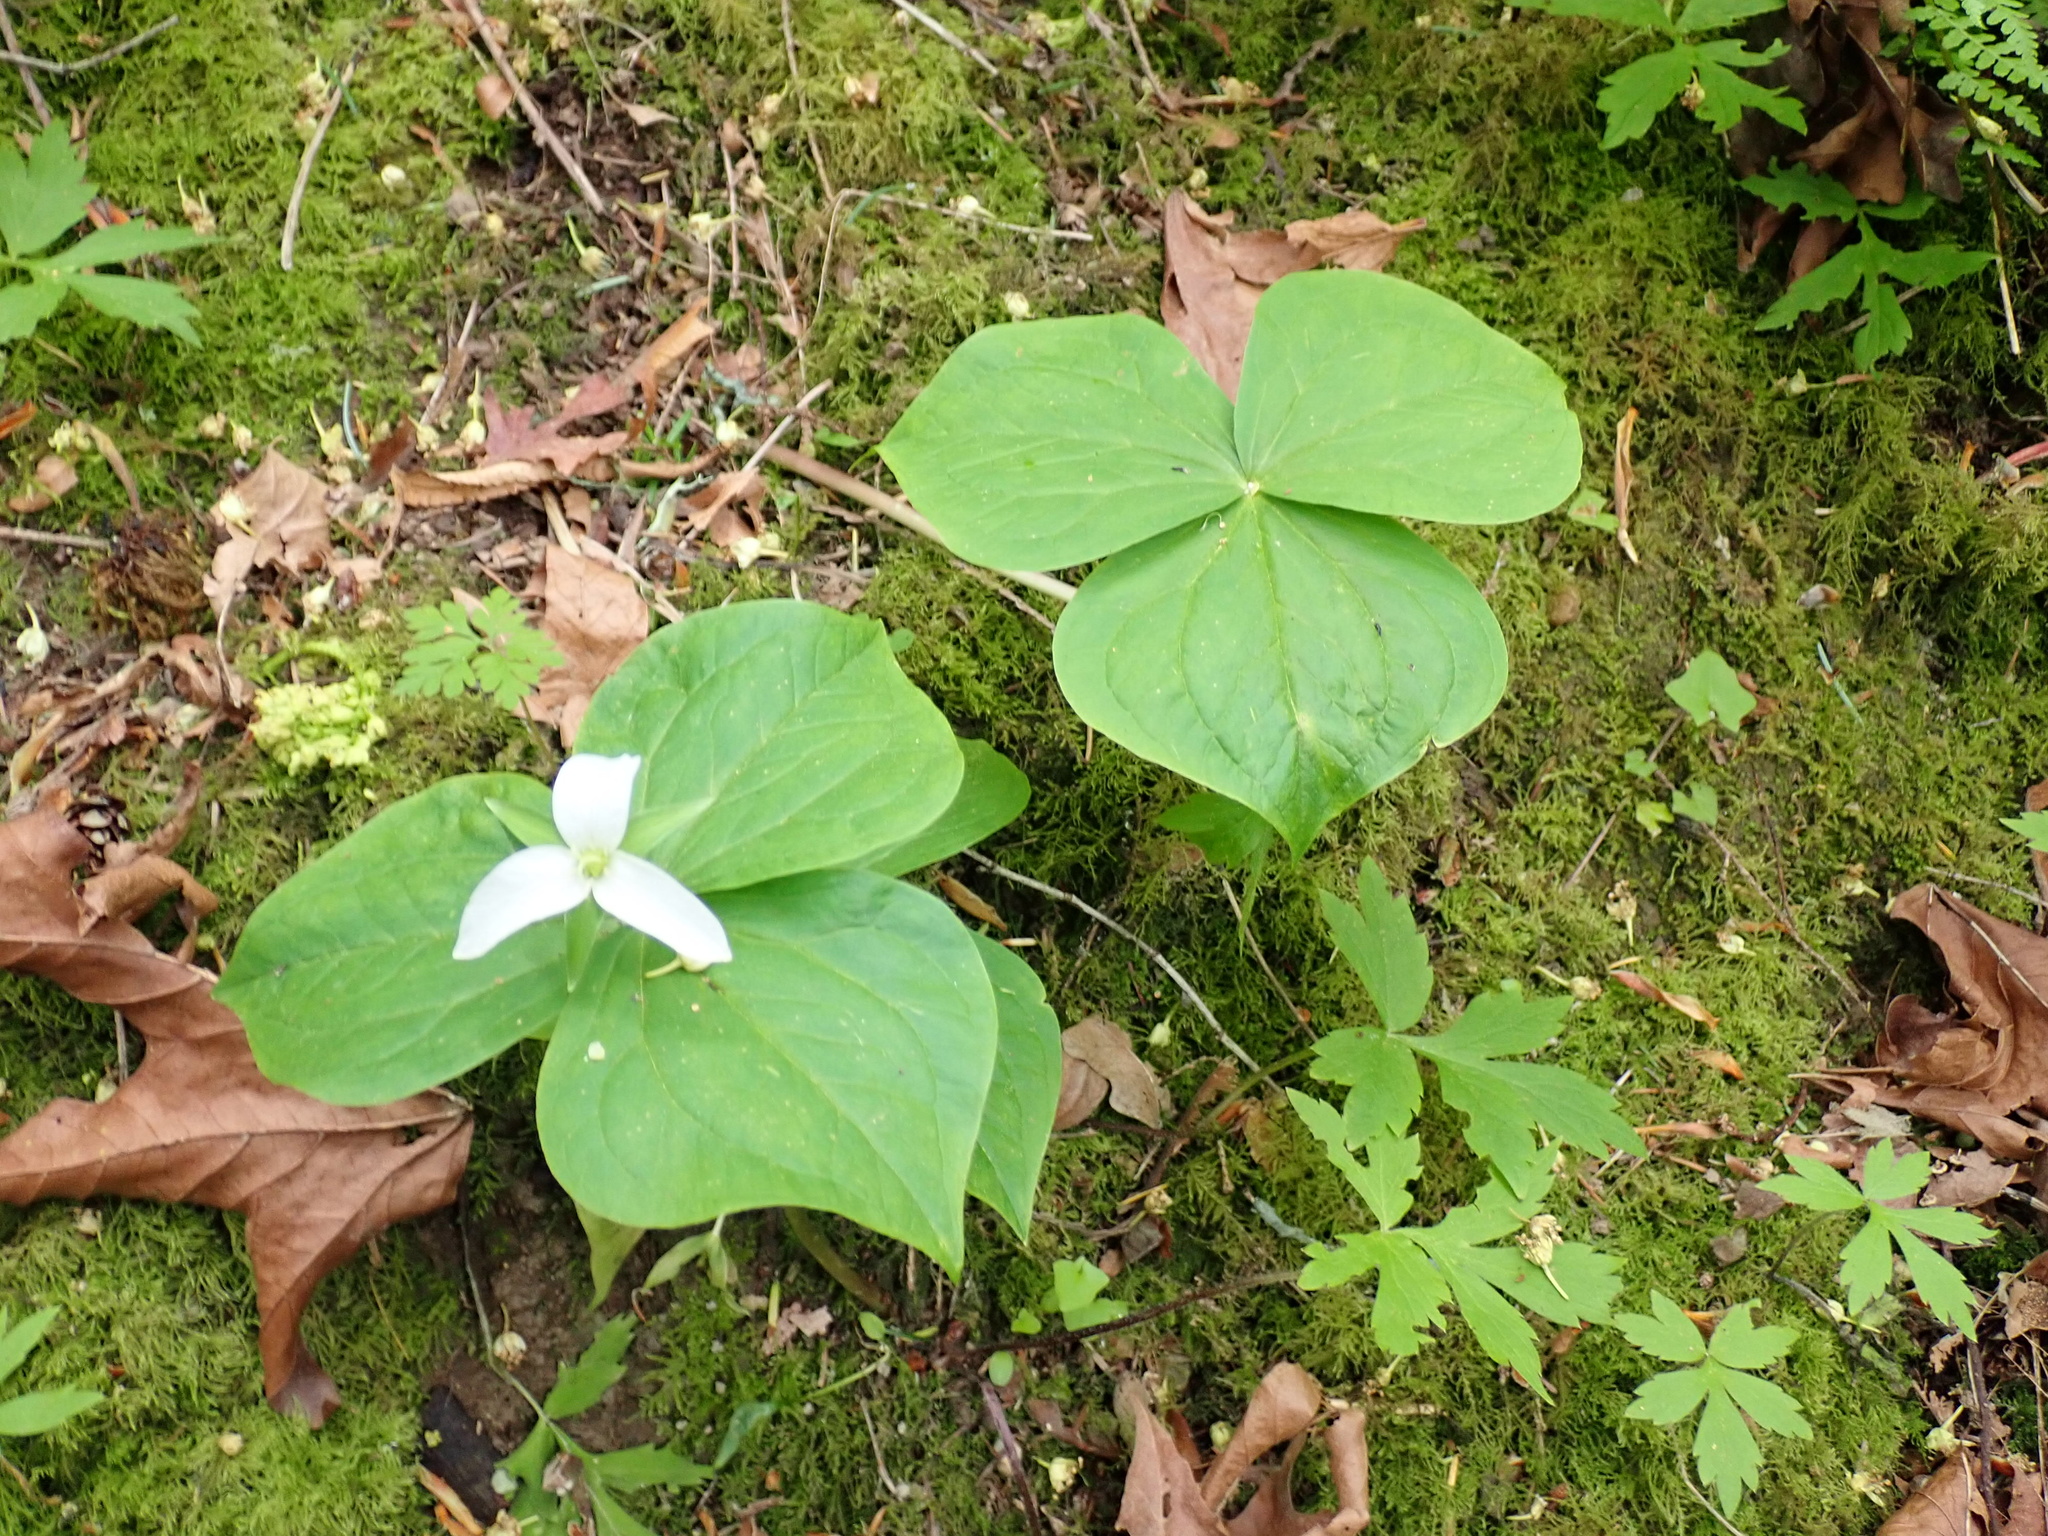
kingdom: Plantae
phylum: Tracheophyta
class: Liliopsida
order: Liliales
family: Melanthiaceae
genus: Trillium
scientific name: Trillium ovatum
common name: Pacific trillium
